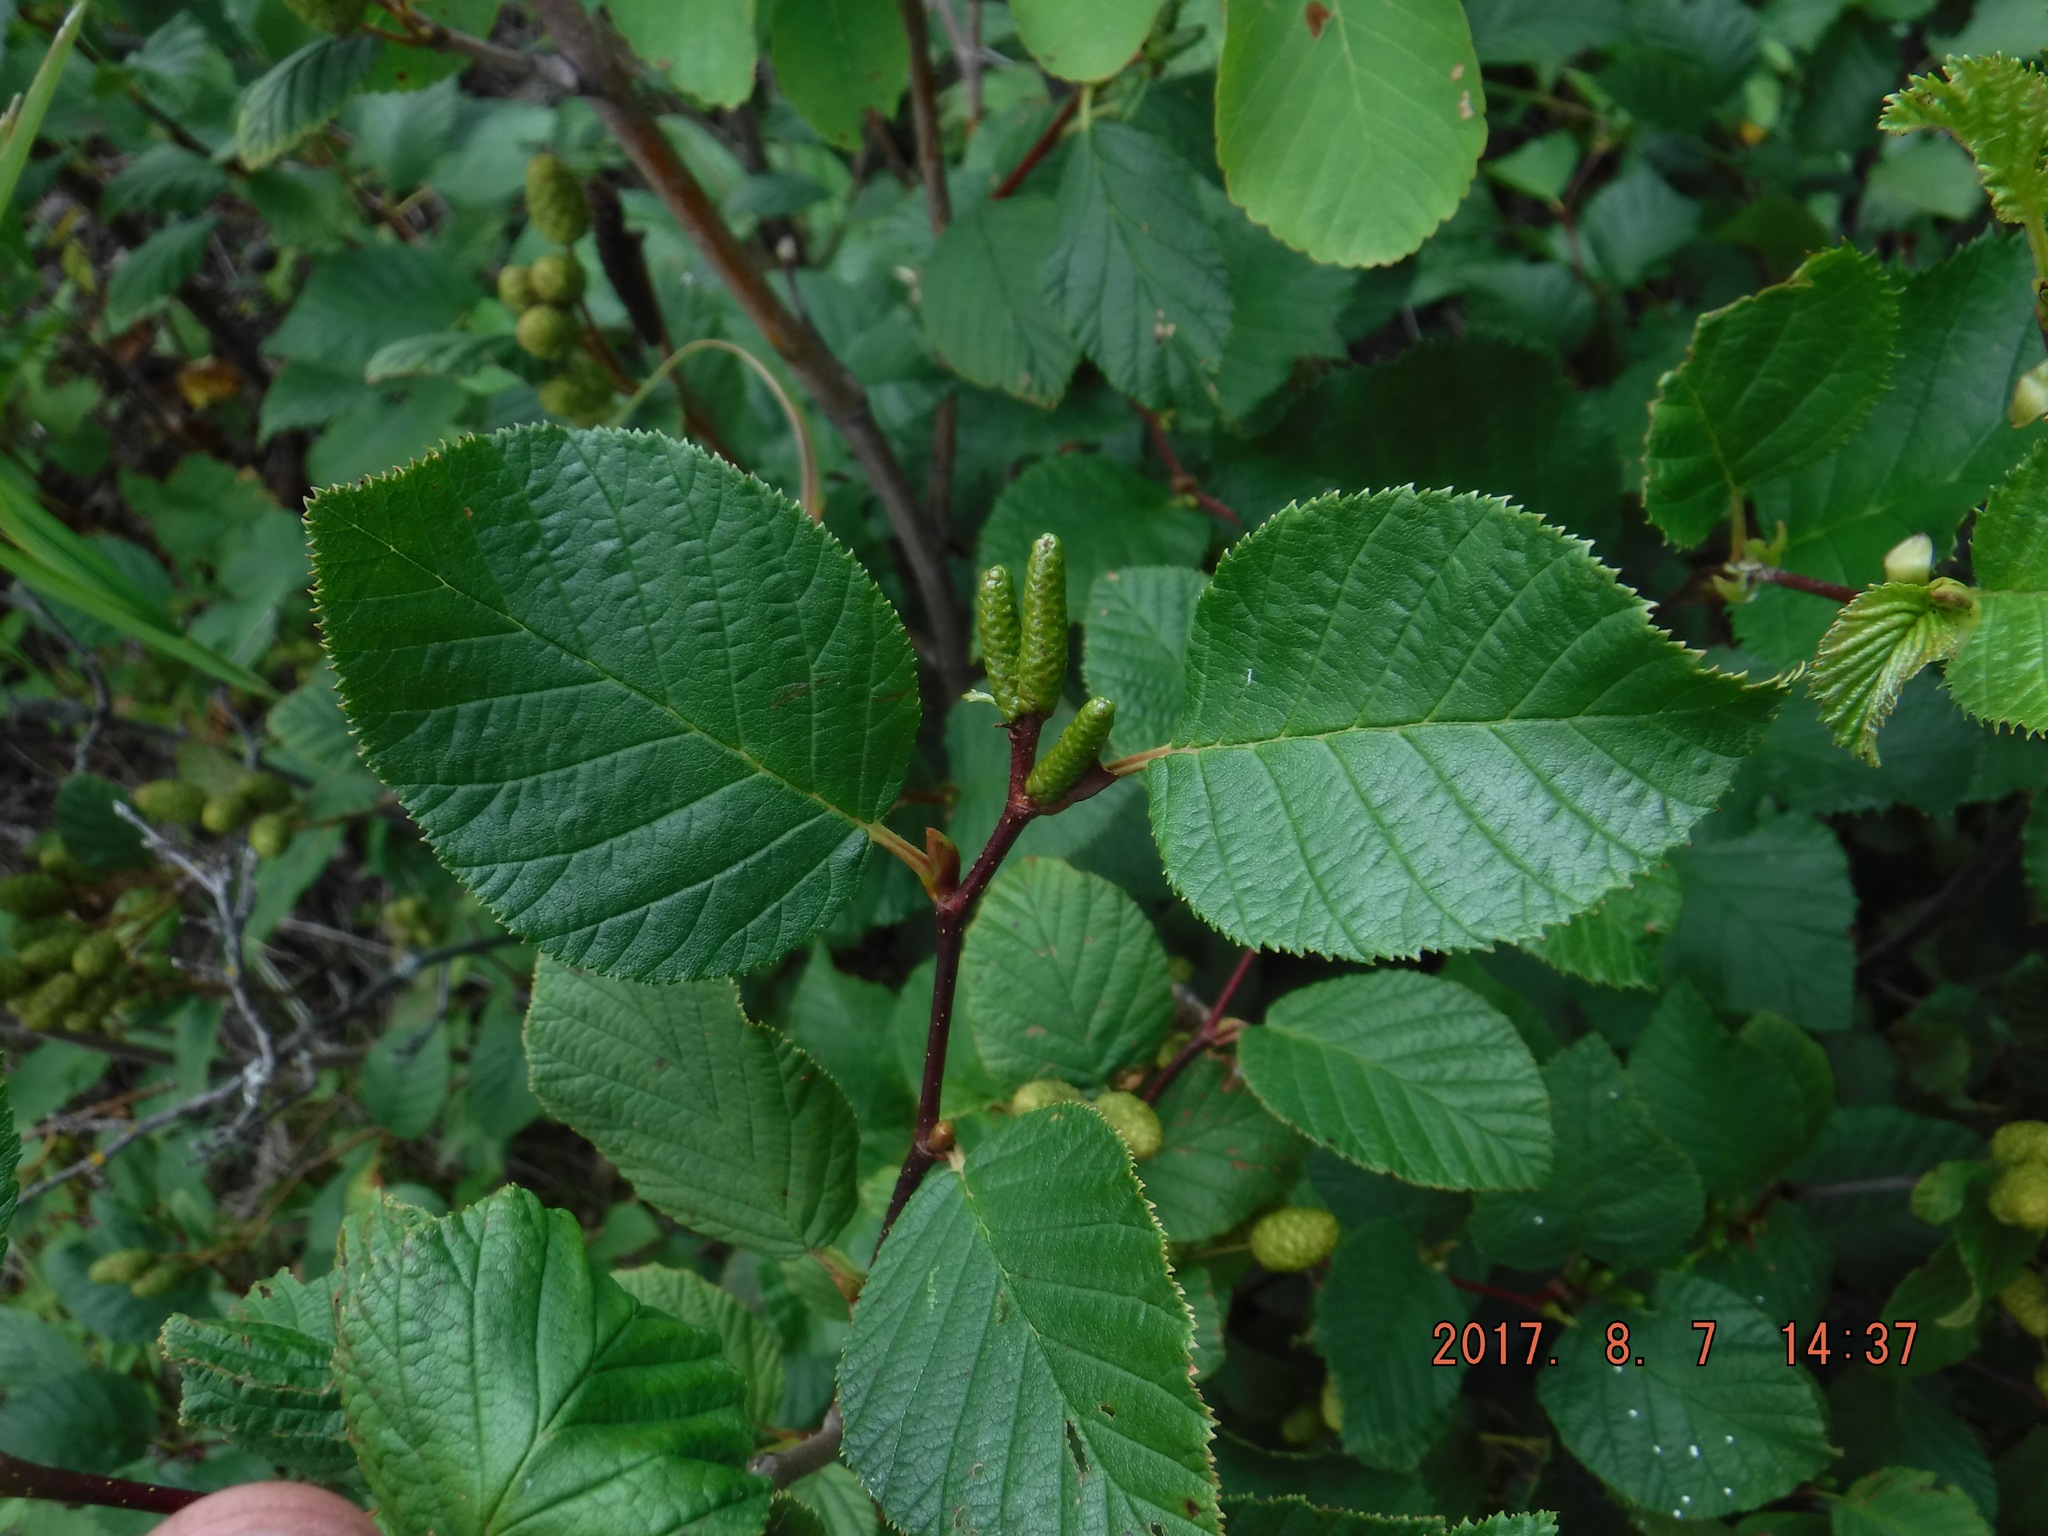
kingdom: Plantae
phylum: Tracheophyta
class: Magnoliopsida
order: Fagales
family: Betulaceae
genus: Alnus
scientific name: Alnus alnobetula
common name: Green alder
